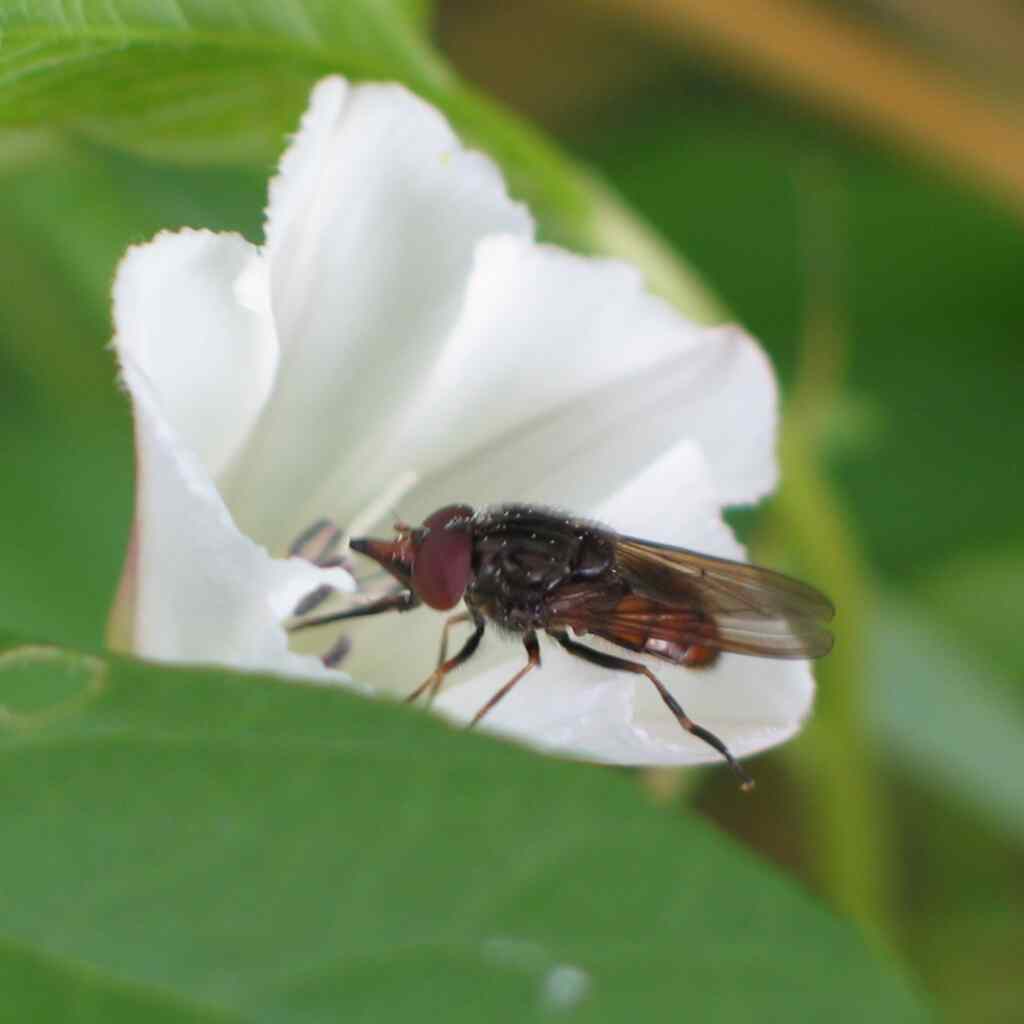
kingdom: Animalia
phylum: Arthropoda
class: Insecta
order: Diptera
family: Syrphidae
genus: Rhingia
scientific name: Rhingia campestris
